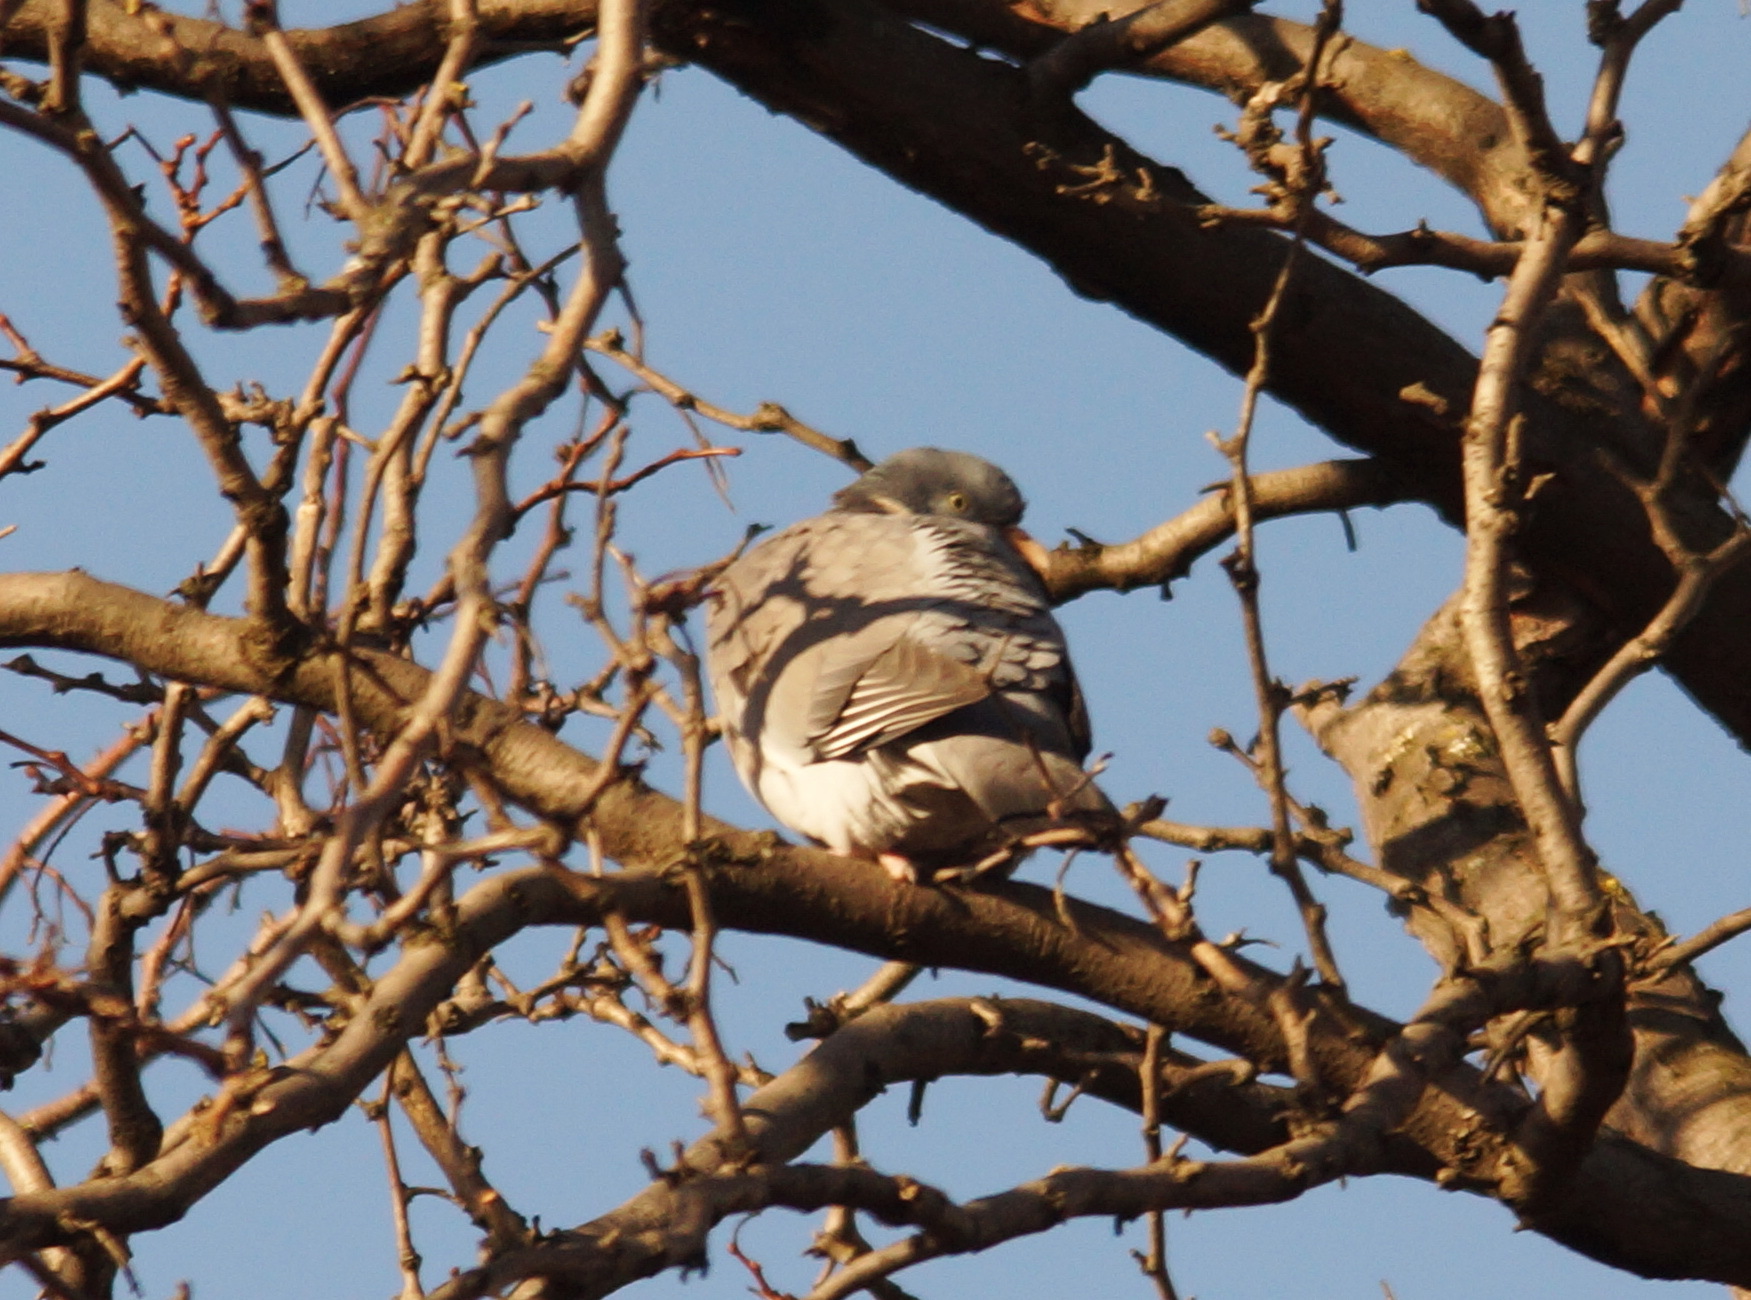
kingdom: Animalia
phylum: Chordata
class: Aves
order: Columbiformes
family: Columbidae
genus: Columba
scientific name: Columba palumbus
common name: Common wood pigeon
